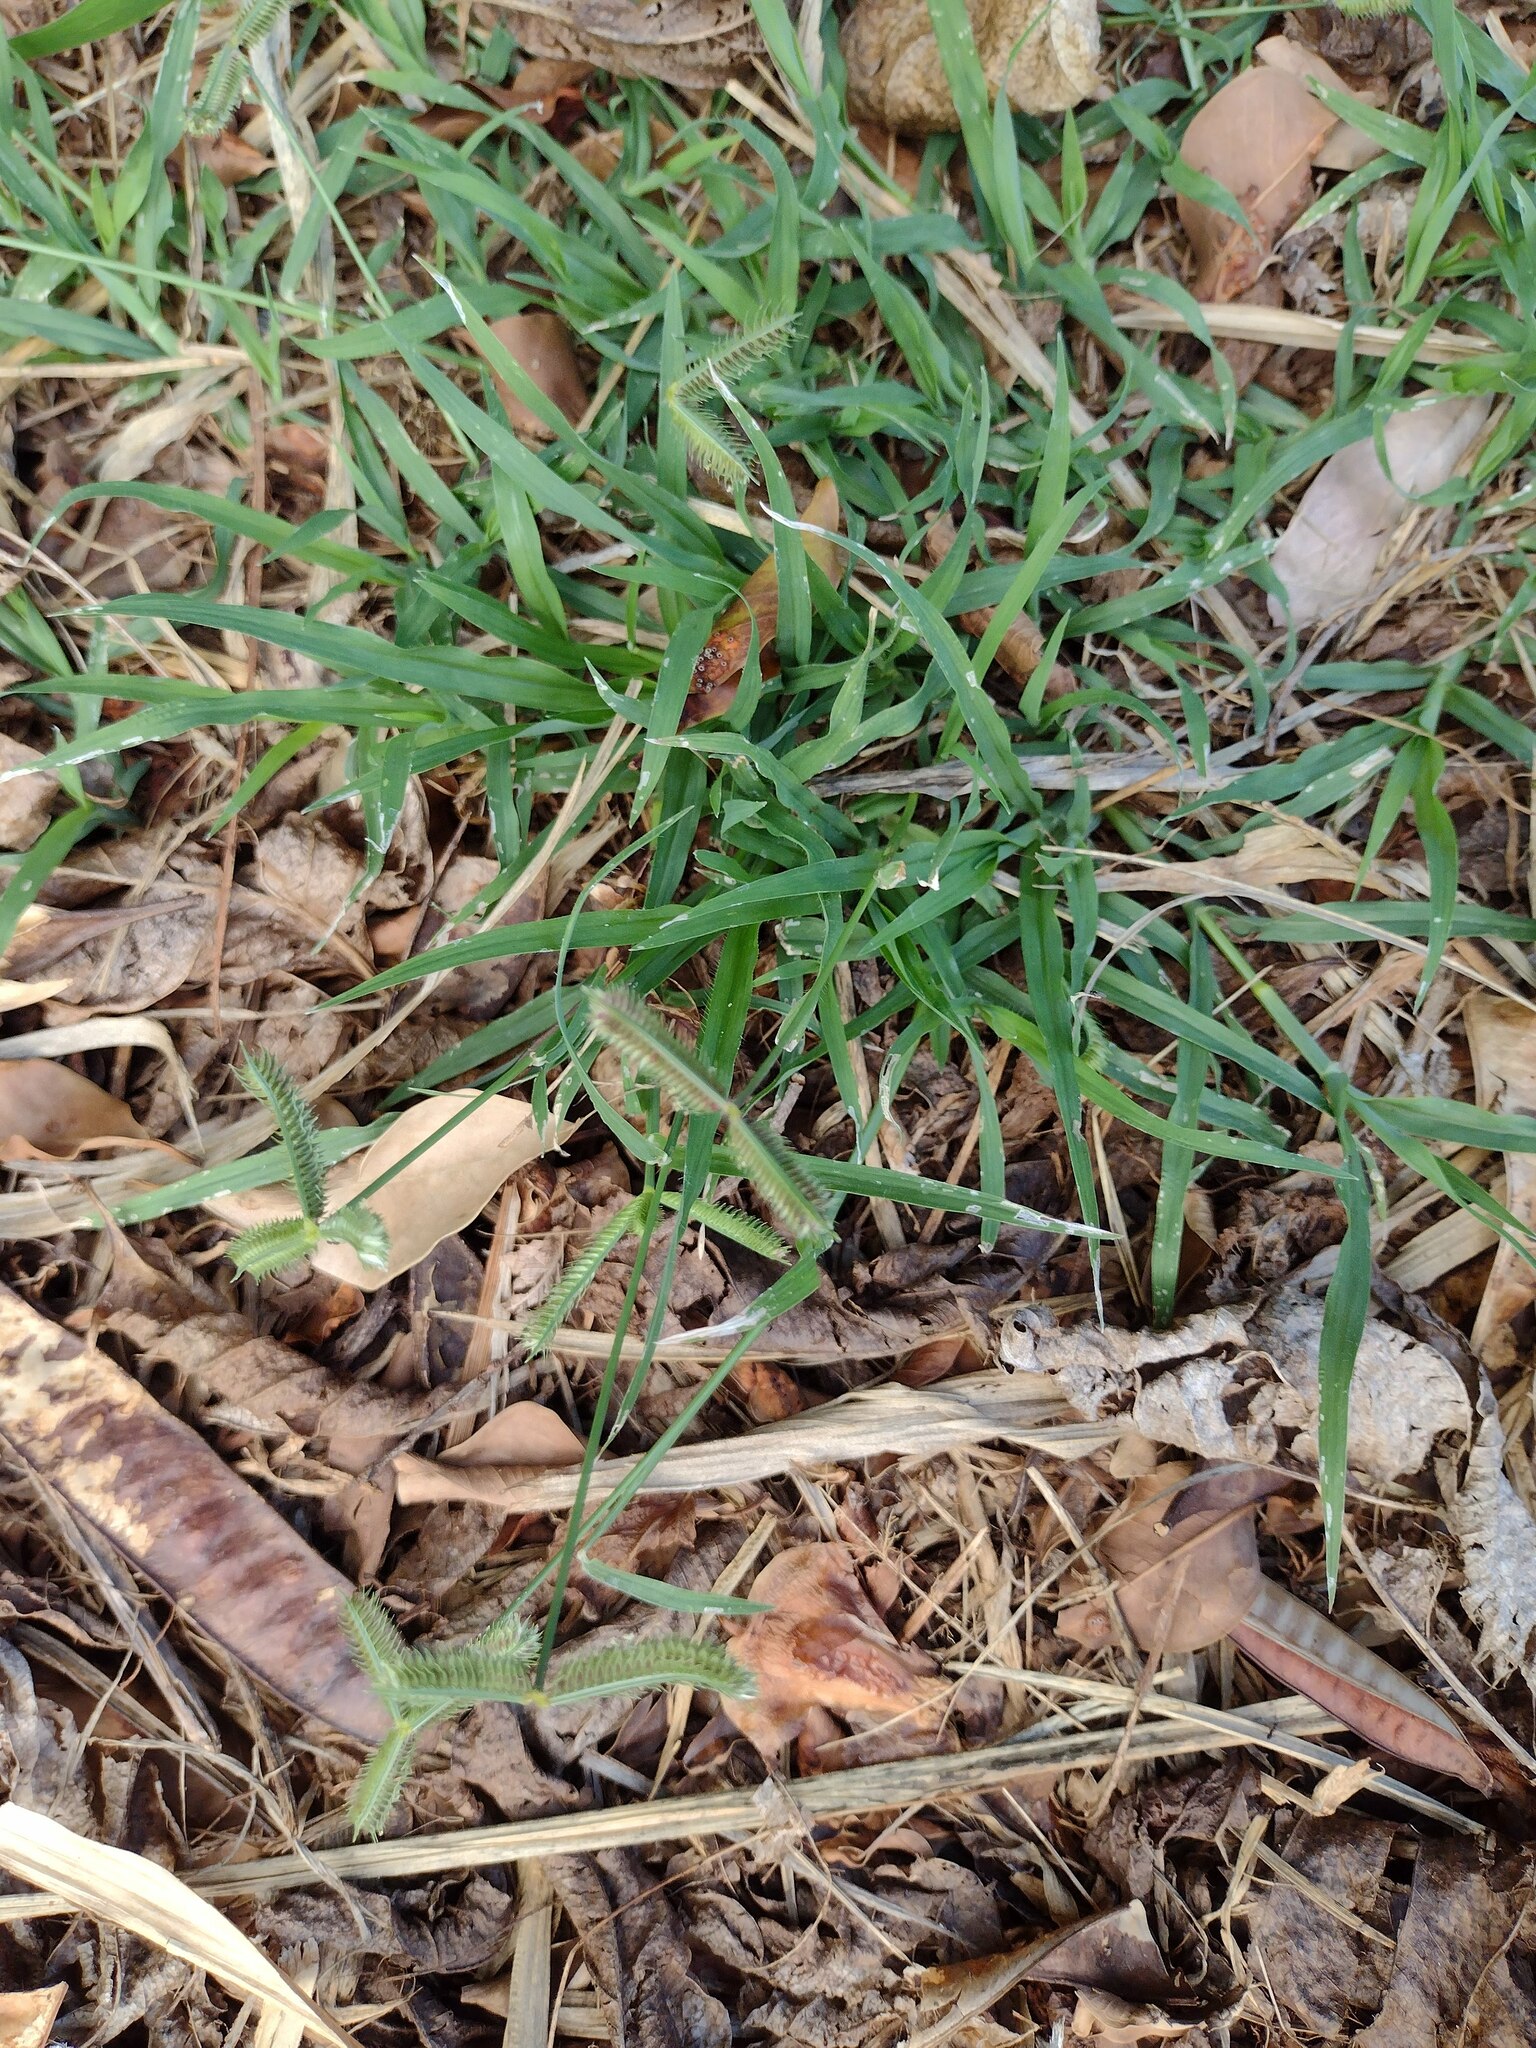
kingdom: Plantae
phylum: Tracheophyta
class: Liliopsida
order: Poales
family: Poaceae
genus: Dactyloctenium
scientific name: Dactyloctenium aegyptium
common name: Egyptian grass
